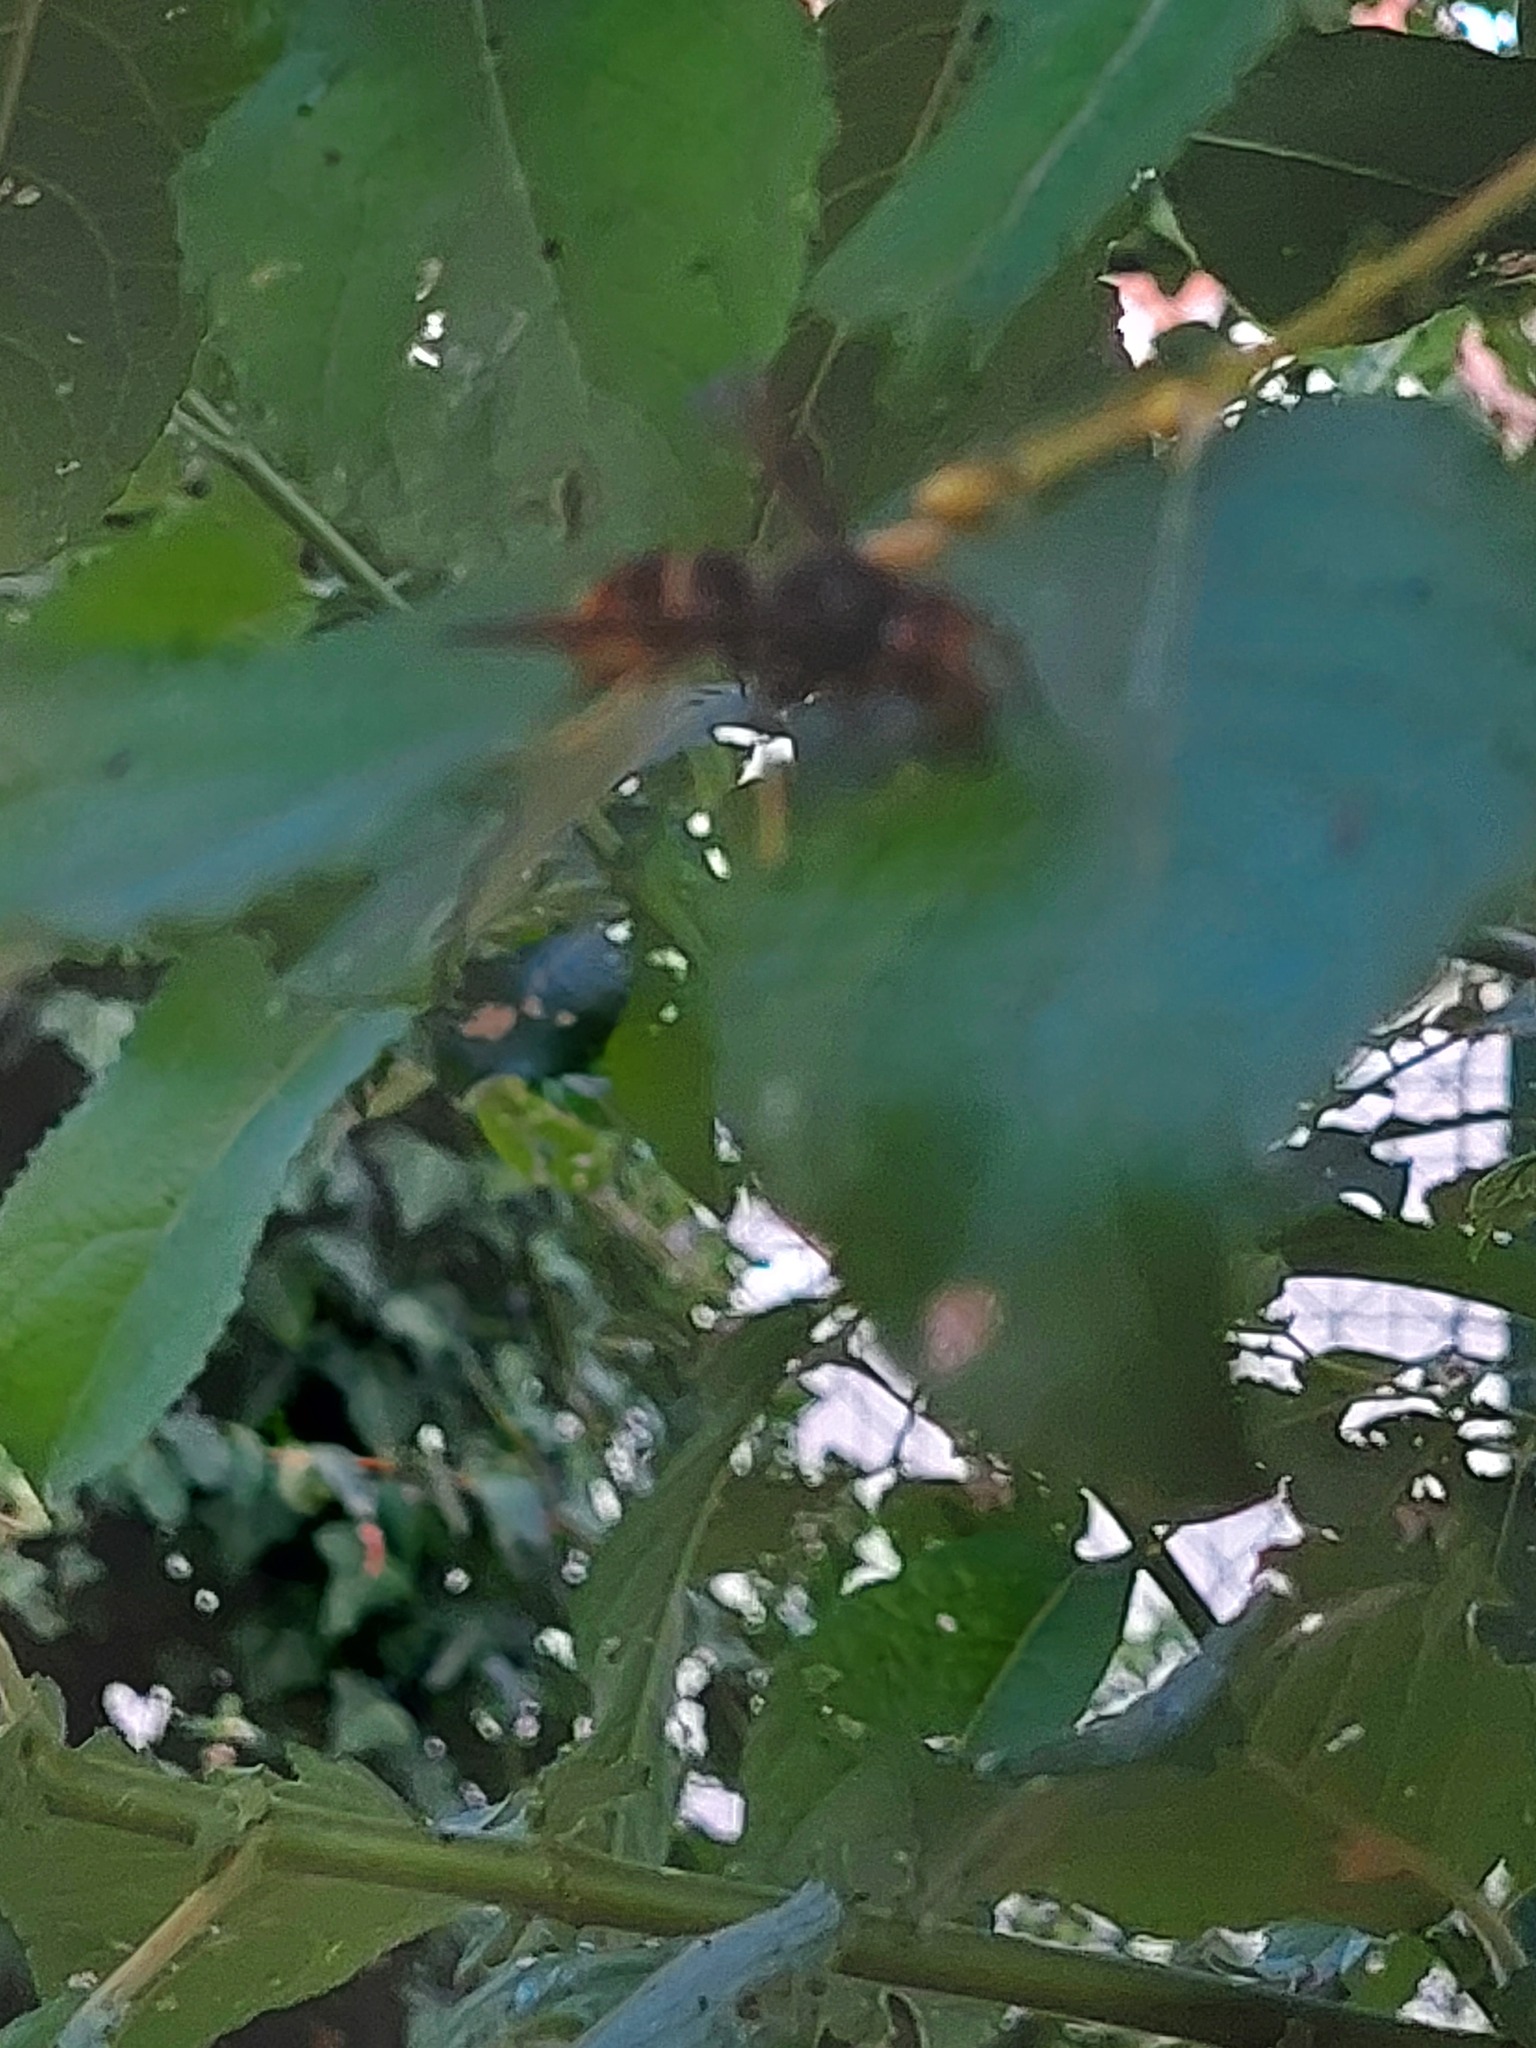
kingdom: Animalia
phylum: Arthropoda
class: Insecta
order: Hymenoptera
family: Vespidae
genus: Vespa
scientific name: Vespa velutina
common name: Asian hornet
